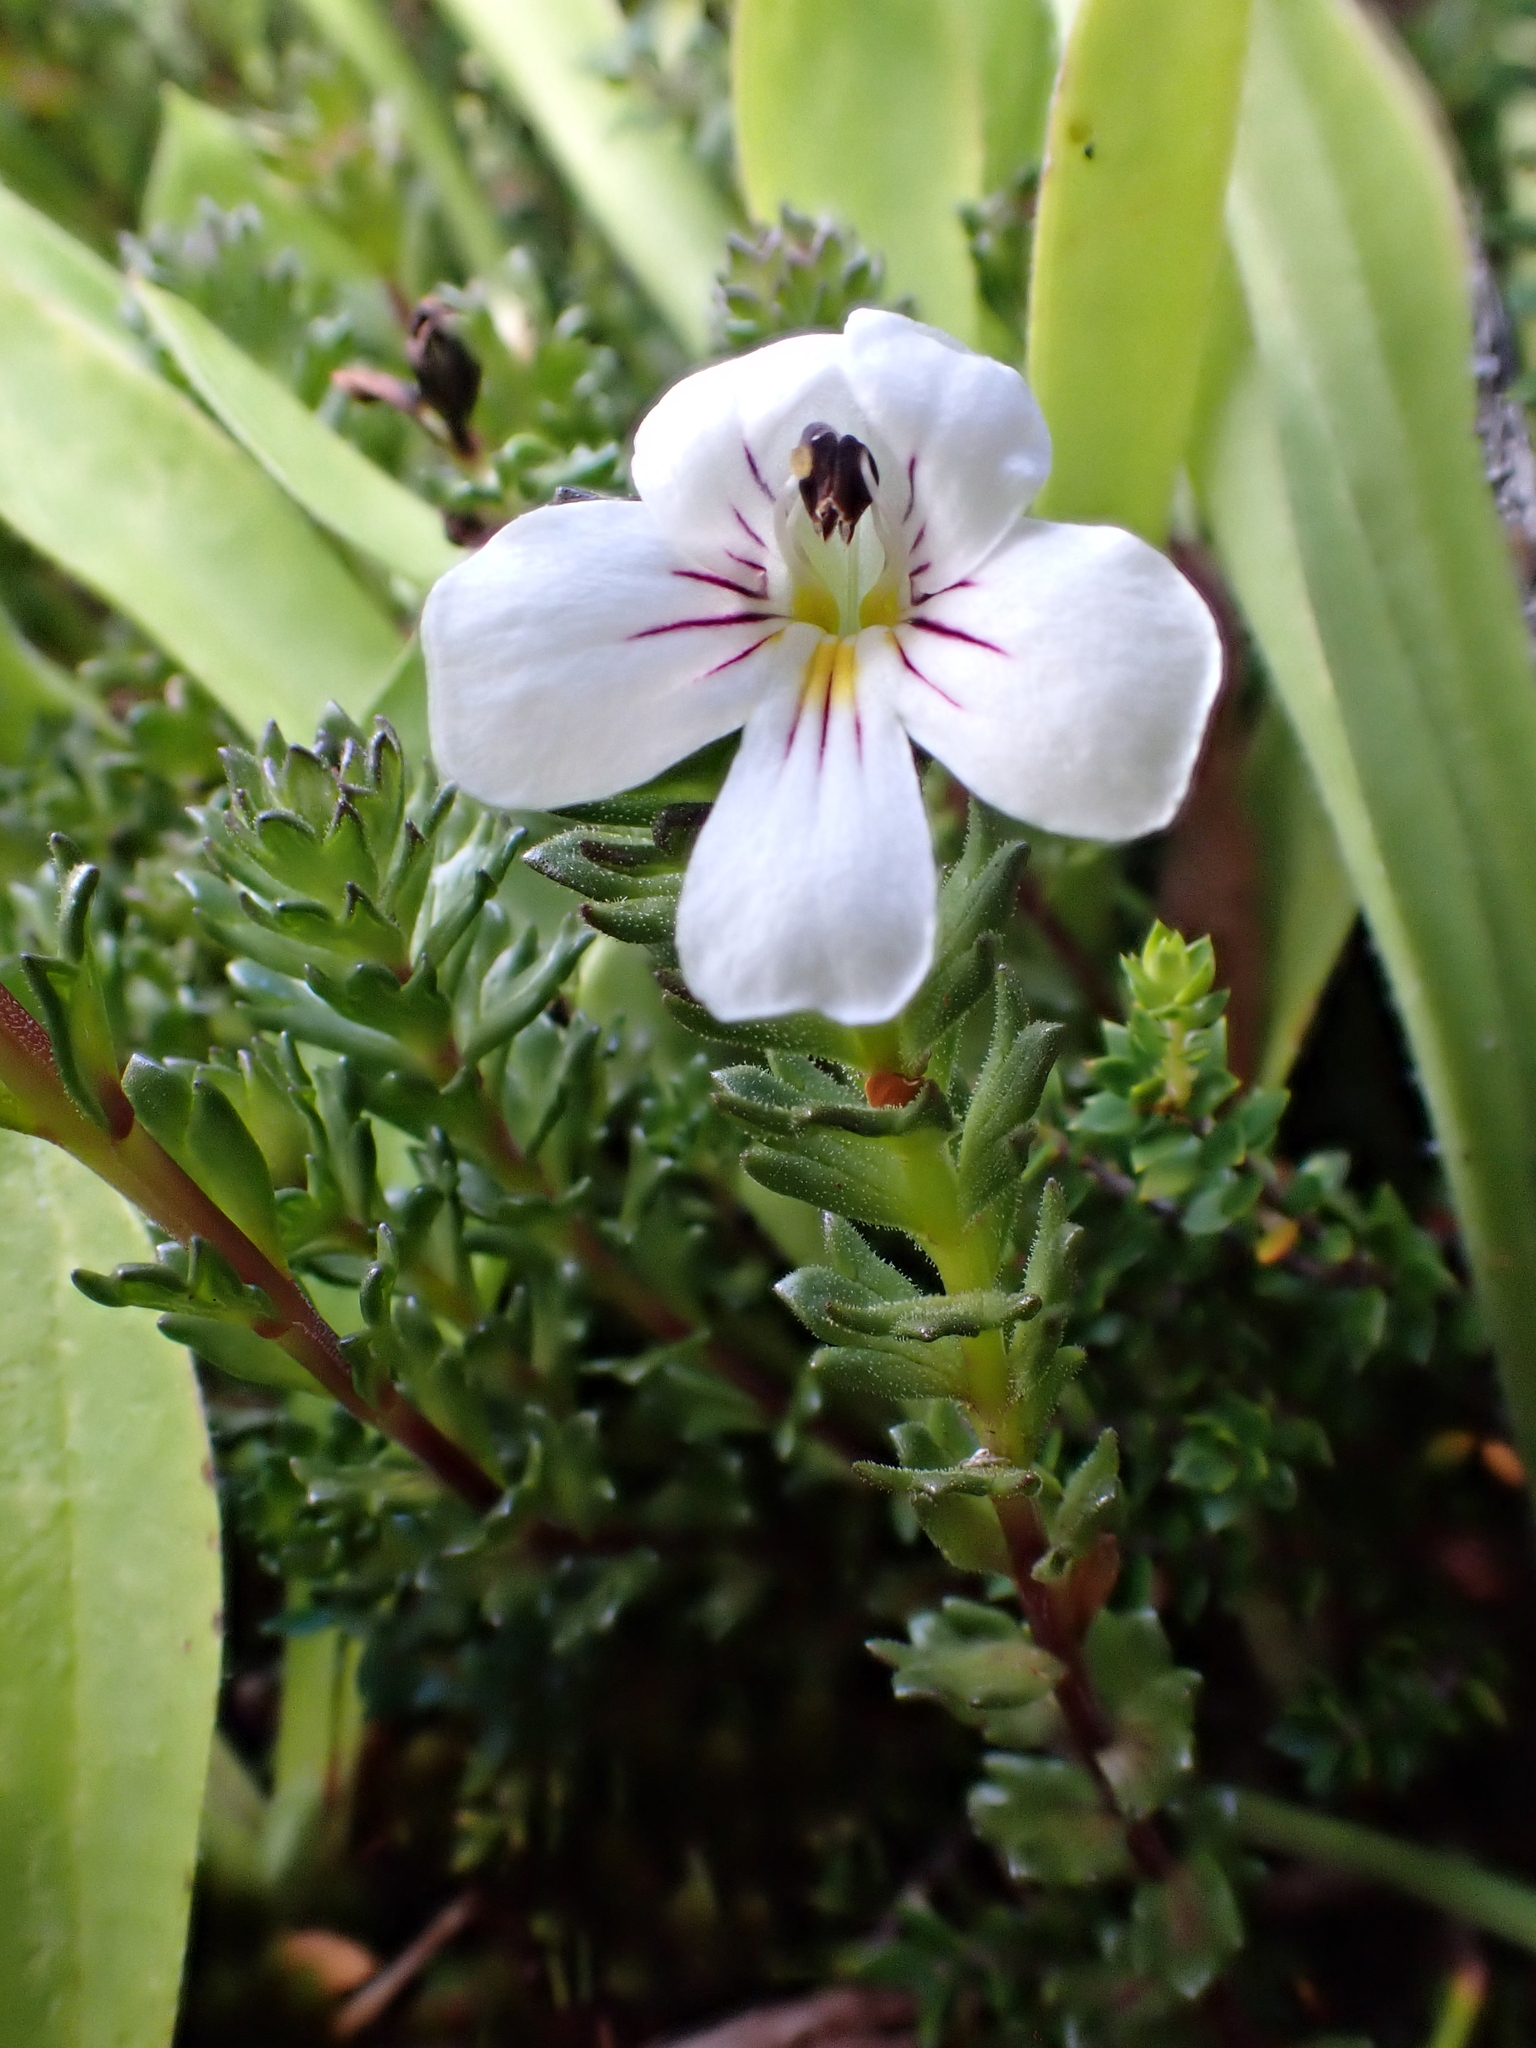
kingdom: Plantae
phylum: Tracheophyta
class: Magnoliopsida
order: Lamiales
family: Orobanchaceae
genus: Euphrasia
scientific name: Euphrasia gibbsiae
